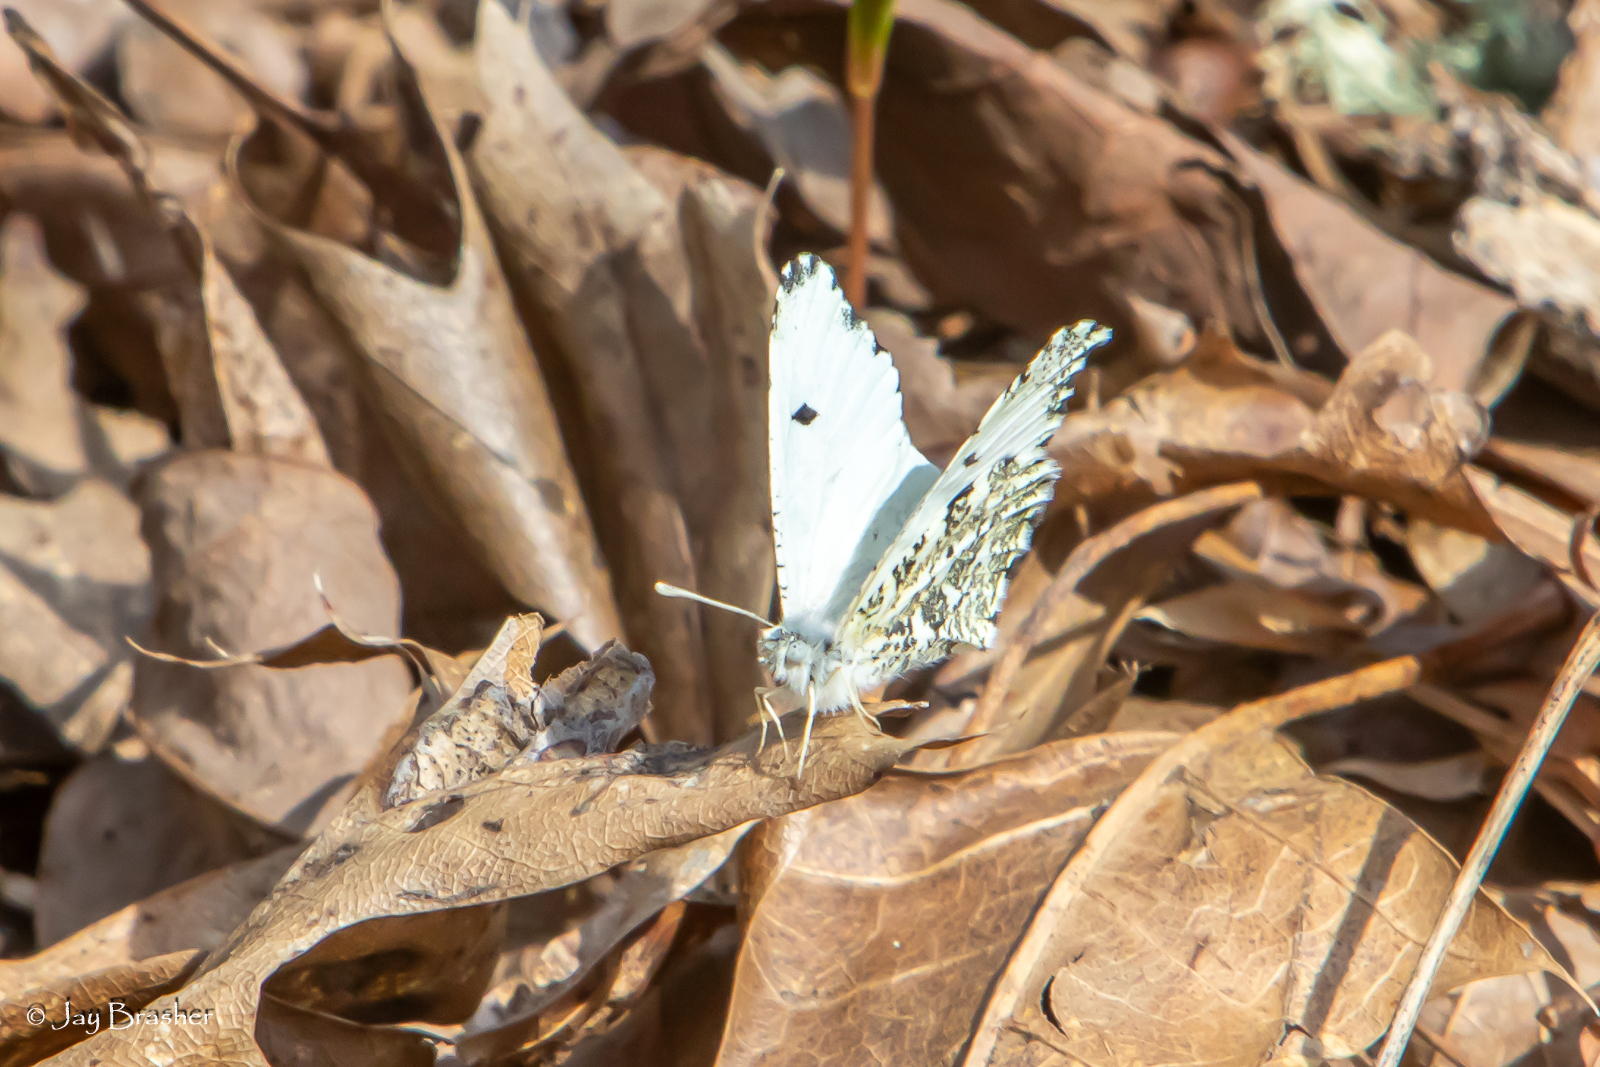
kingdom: Animalia
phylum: Arthropoda
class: Insecta
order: Lepidoptera
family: Pieridae
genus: Anthocharis
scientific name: Anthocharis midea
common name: Falcate orangetip
